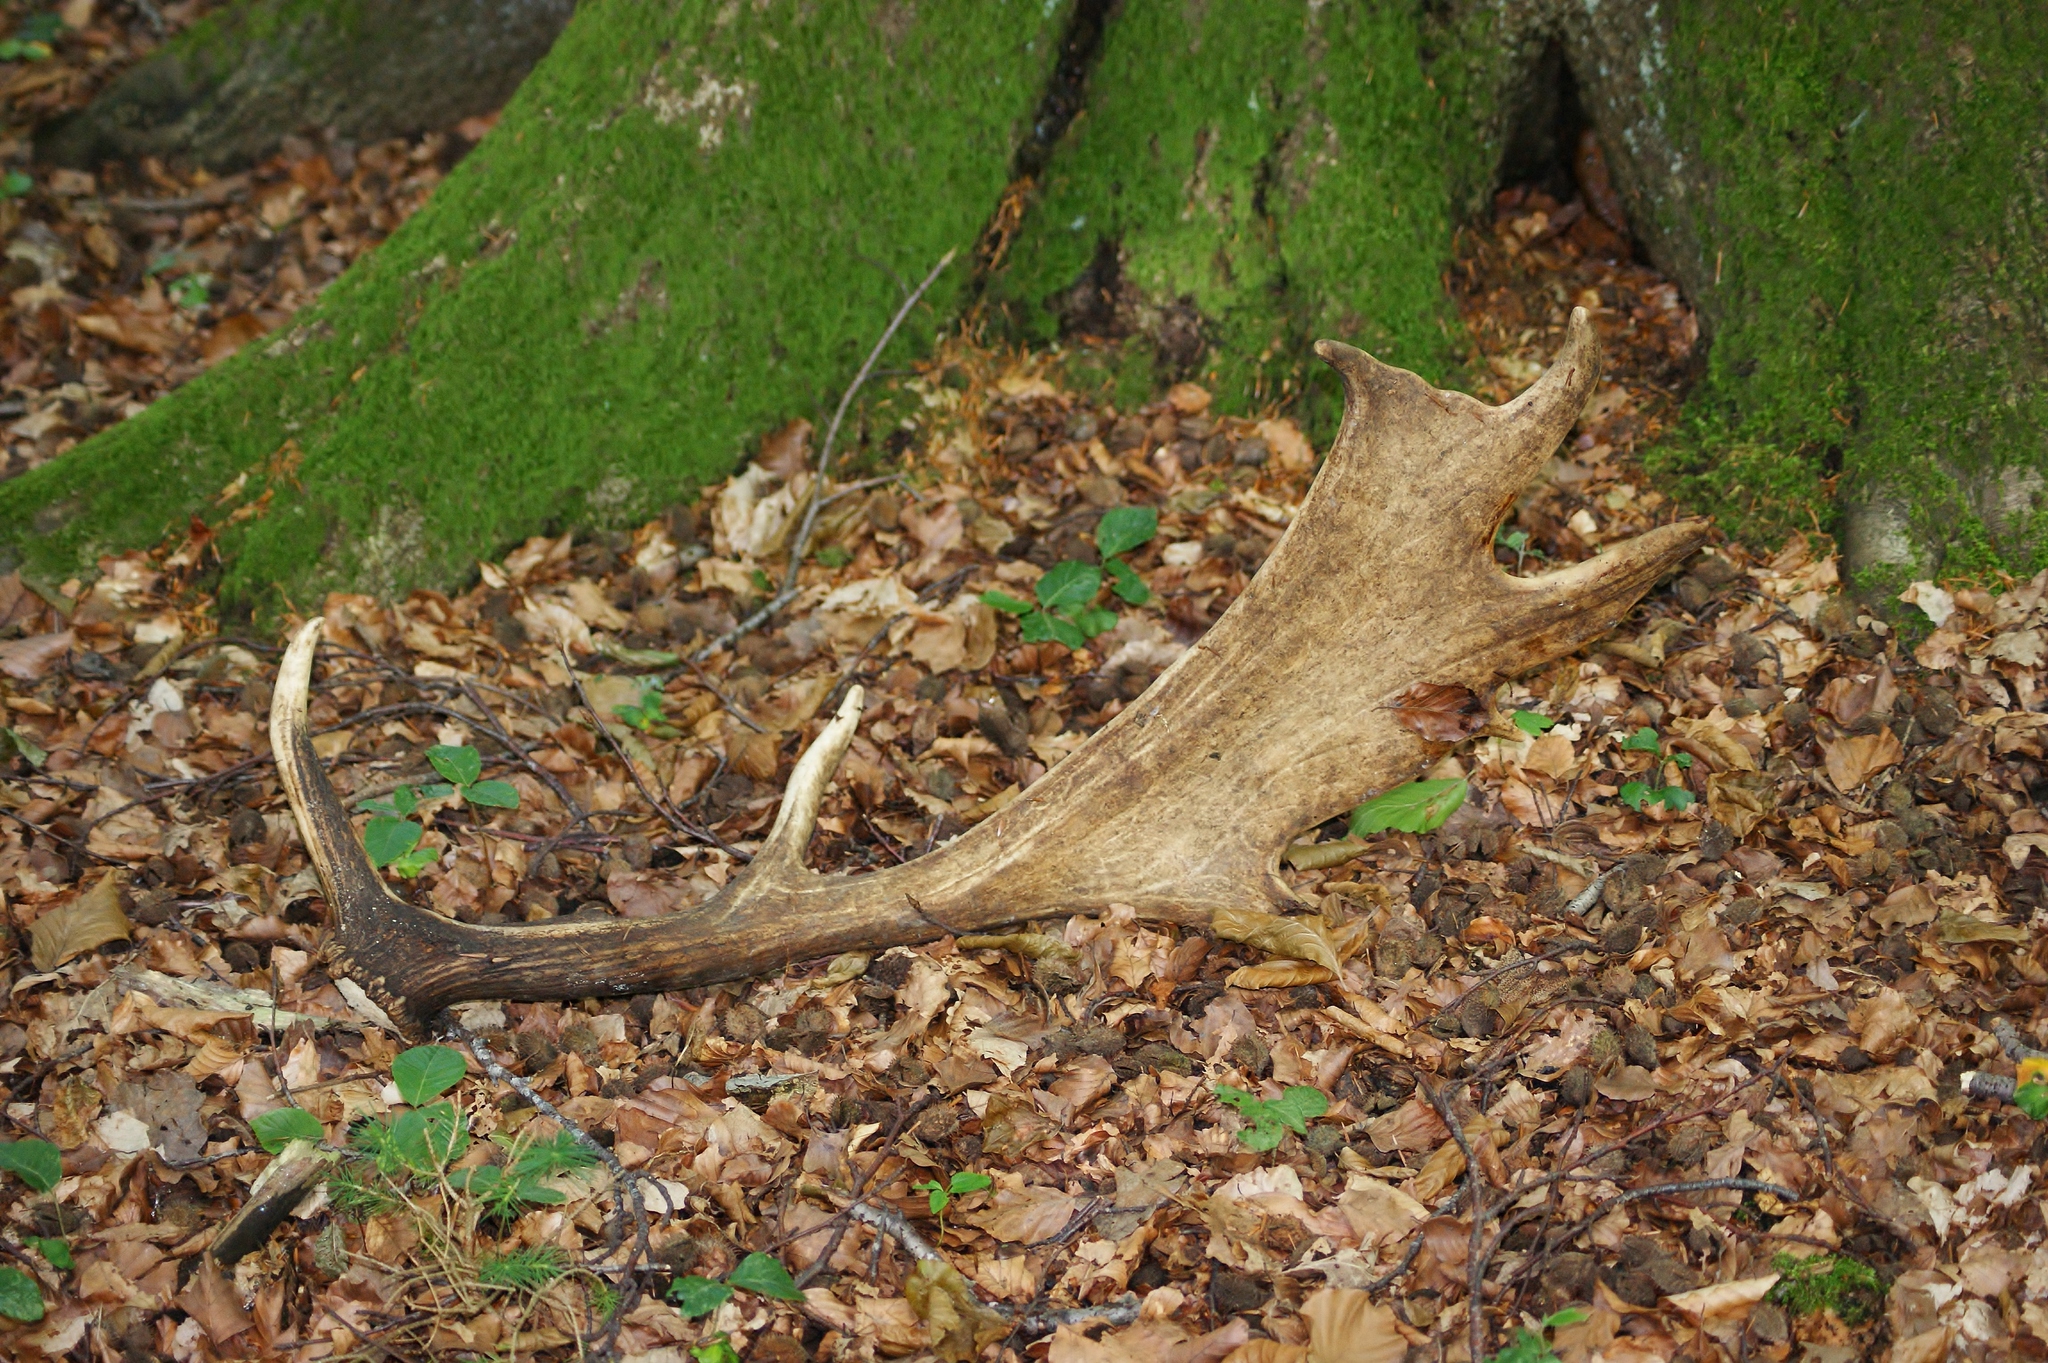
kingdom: Animalia
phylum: Chordata
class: Mammalia
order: Artiodactyla
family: Cervidae
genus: Dama
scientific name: Dama dama
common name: Fallow deer
